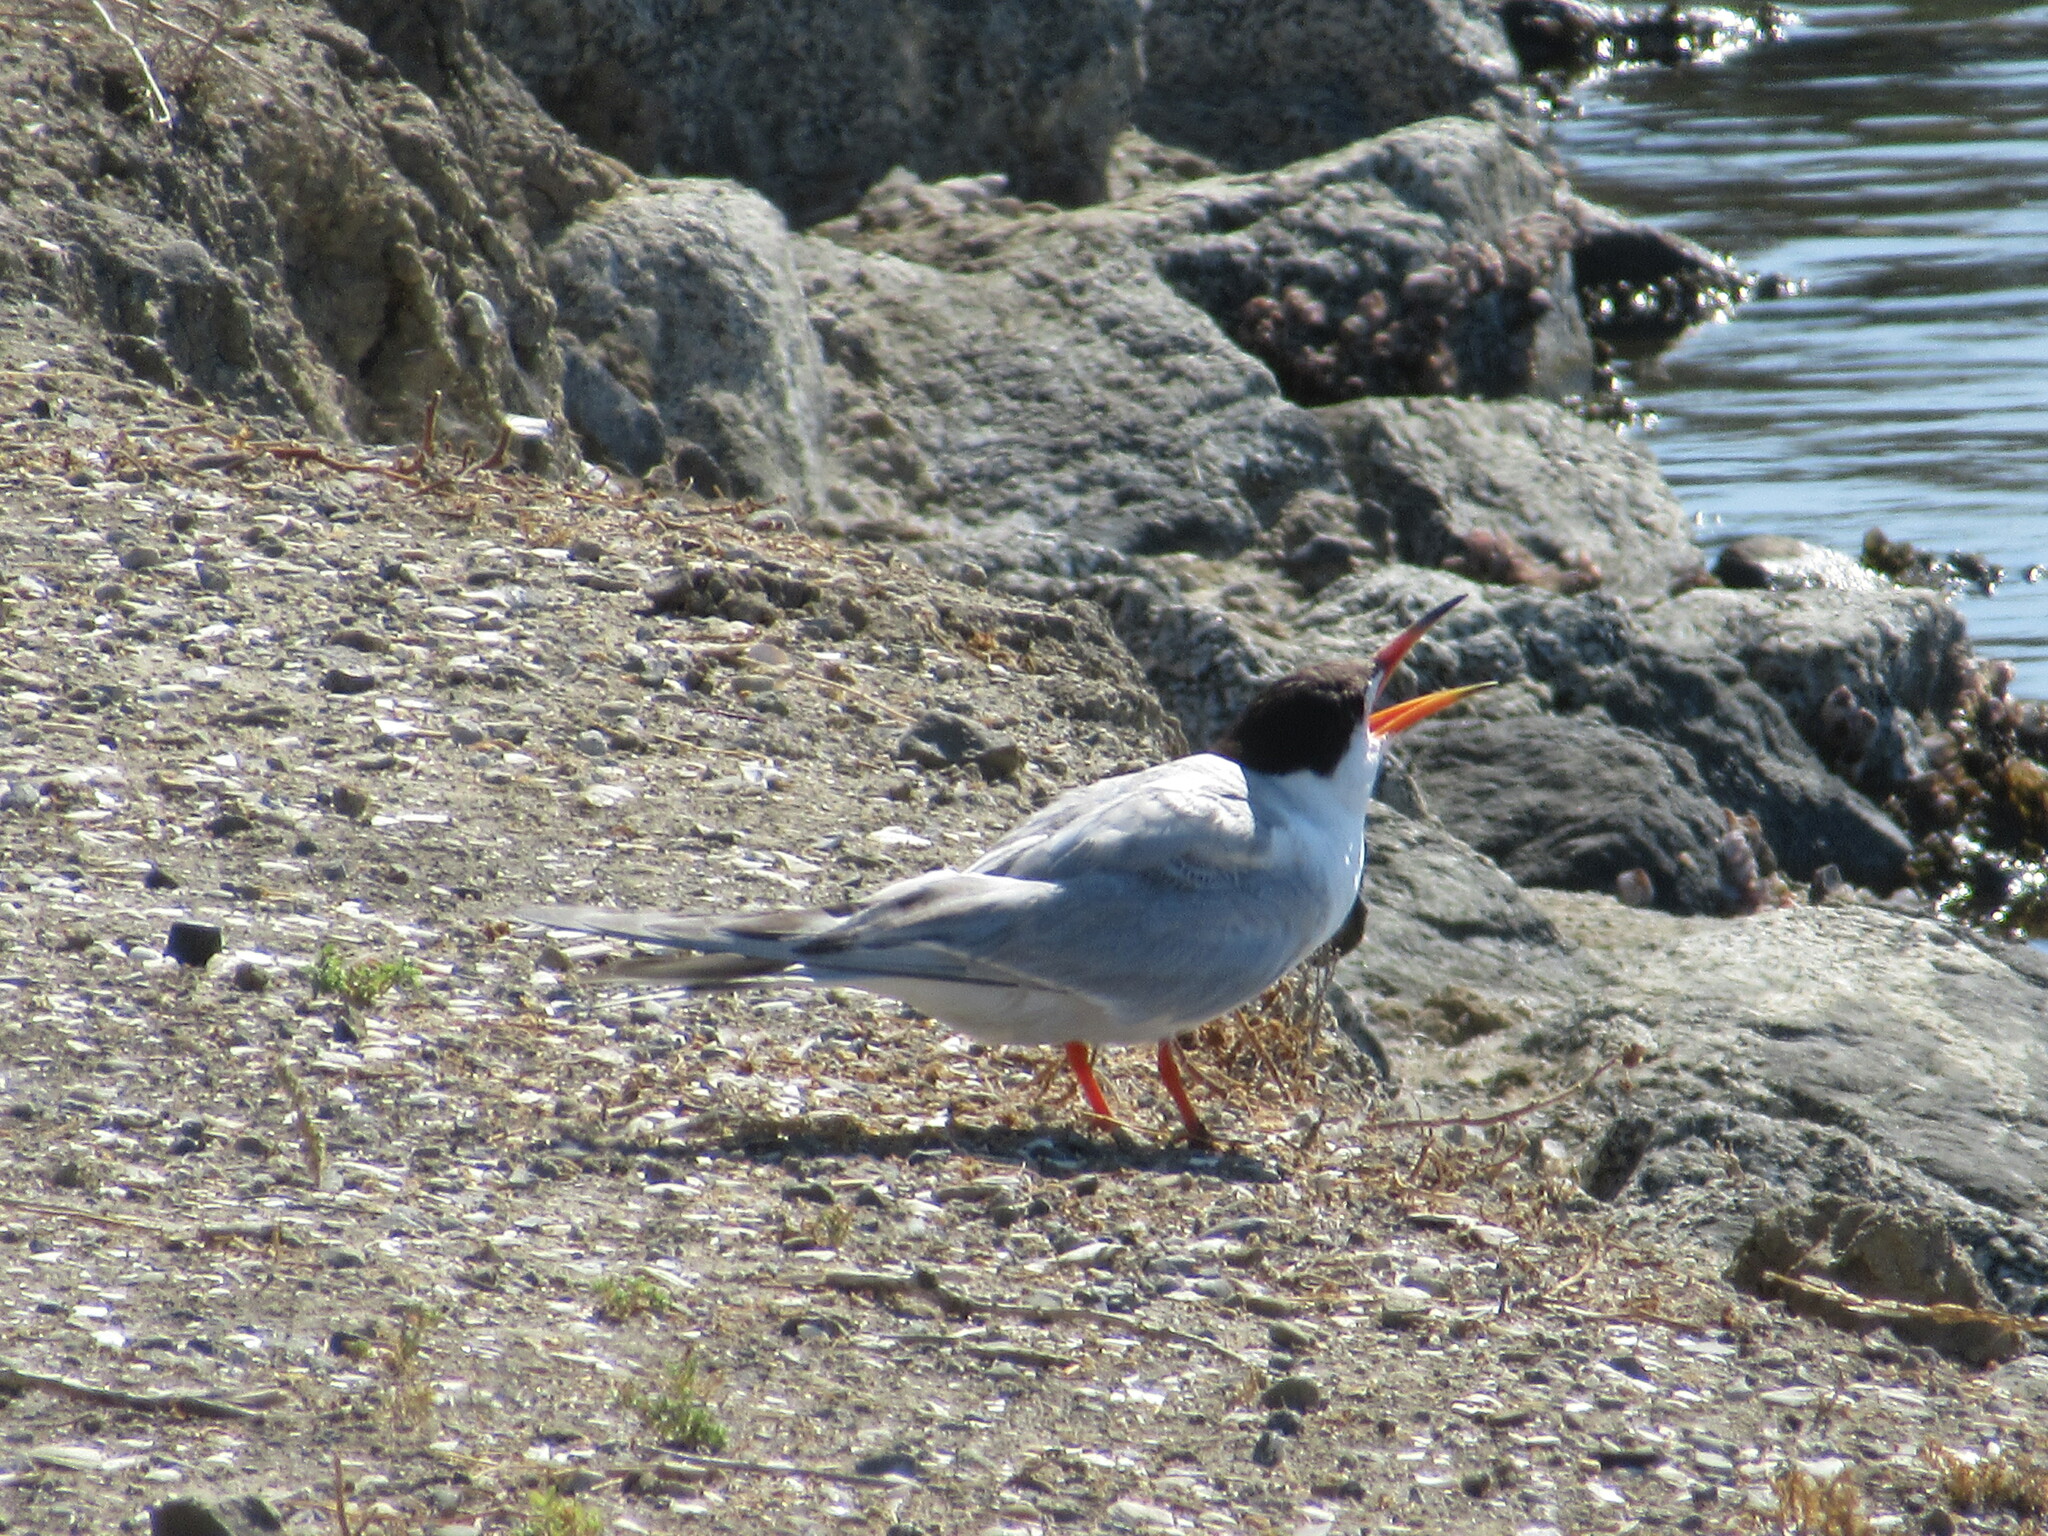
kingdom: Animalia
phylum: Chordata
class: Aves
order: Charadriiformes
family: Laridae
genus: Sterna
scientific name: Sterna forsteri
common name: Forster's tern
